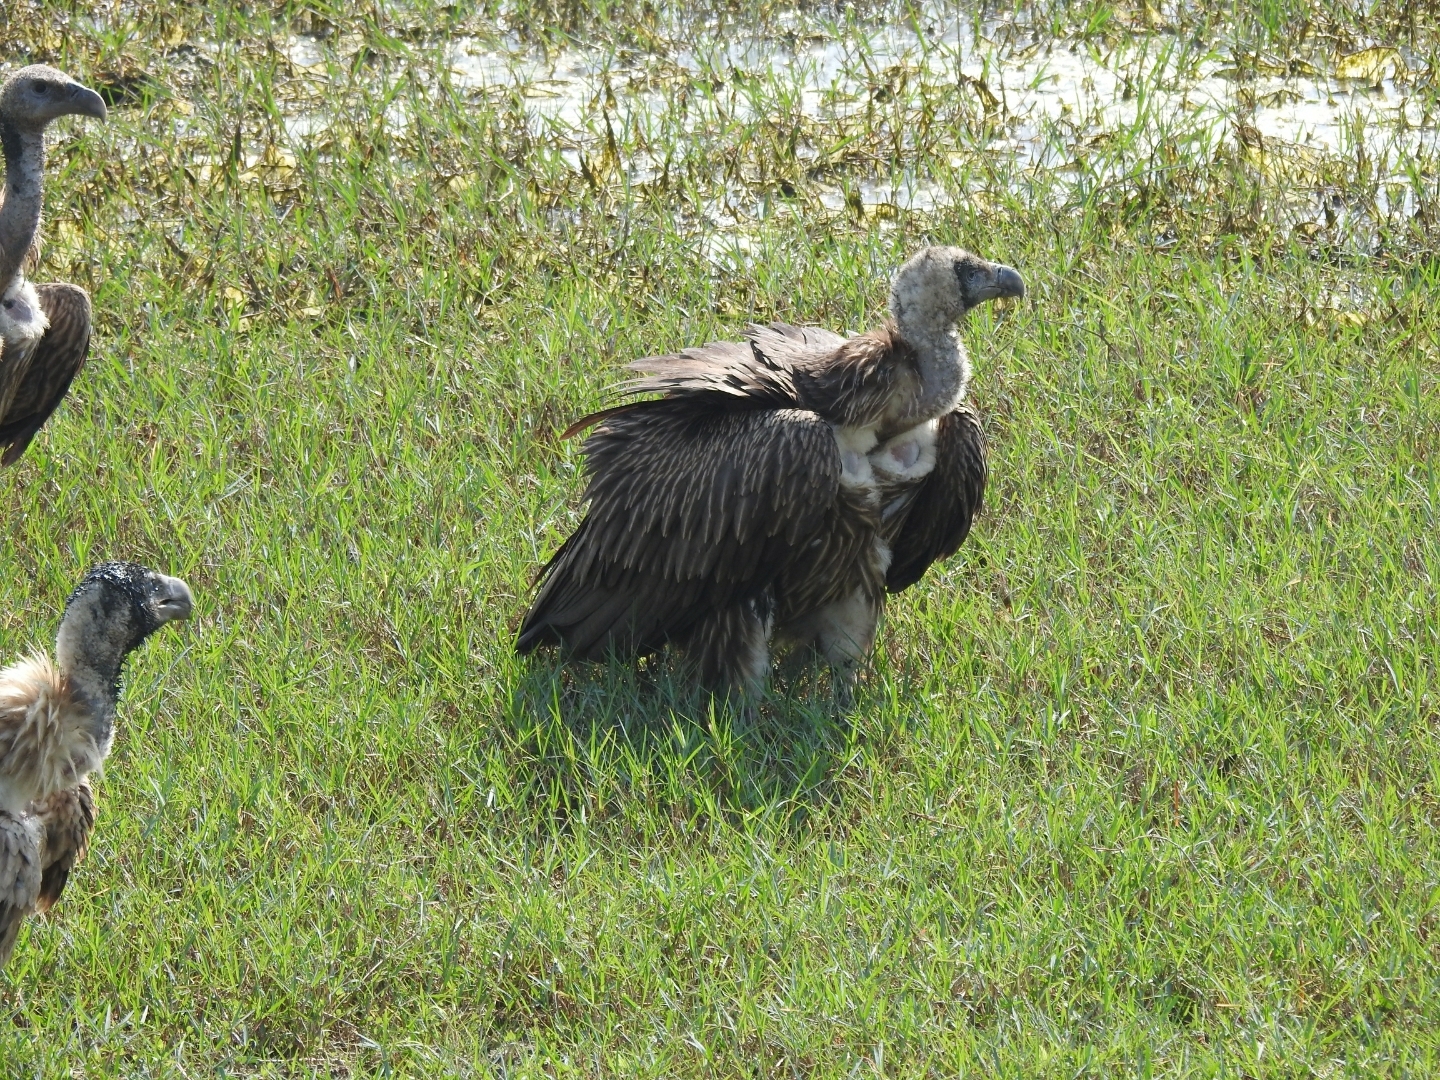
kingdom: Animalia
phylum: Chordata
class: Aves
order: Accipitriformes
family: Accipitridae
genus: Gyps
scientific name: Gyps himalayensis
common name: Himalayan griffon
